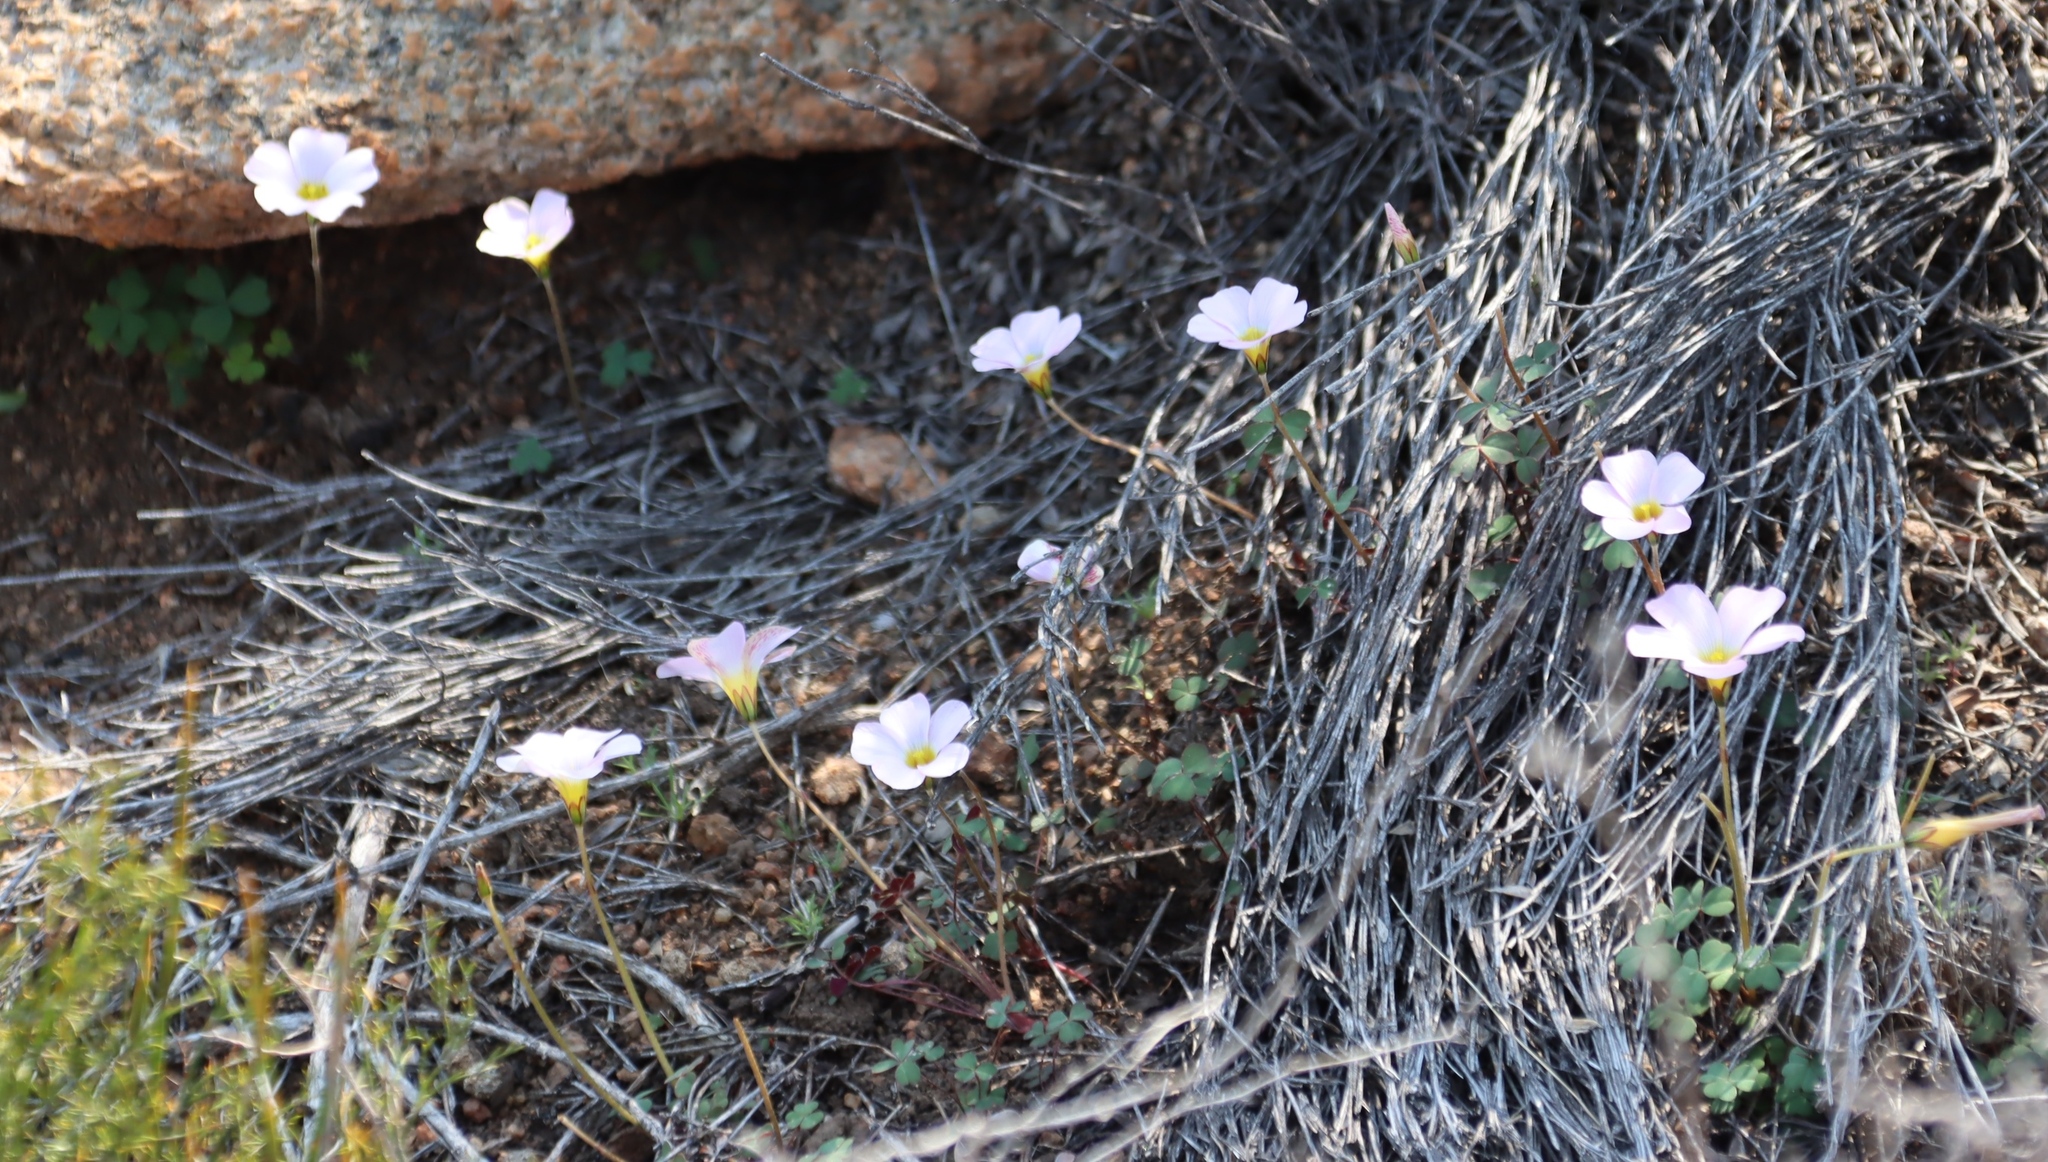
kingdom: Plantae
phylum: Tracheophyta
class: Magnoliopsida
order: Oxalidales
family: Oxalidaceae
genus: Oxalis
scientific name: Oxalis obtusa
